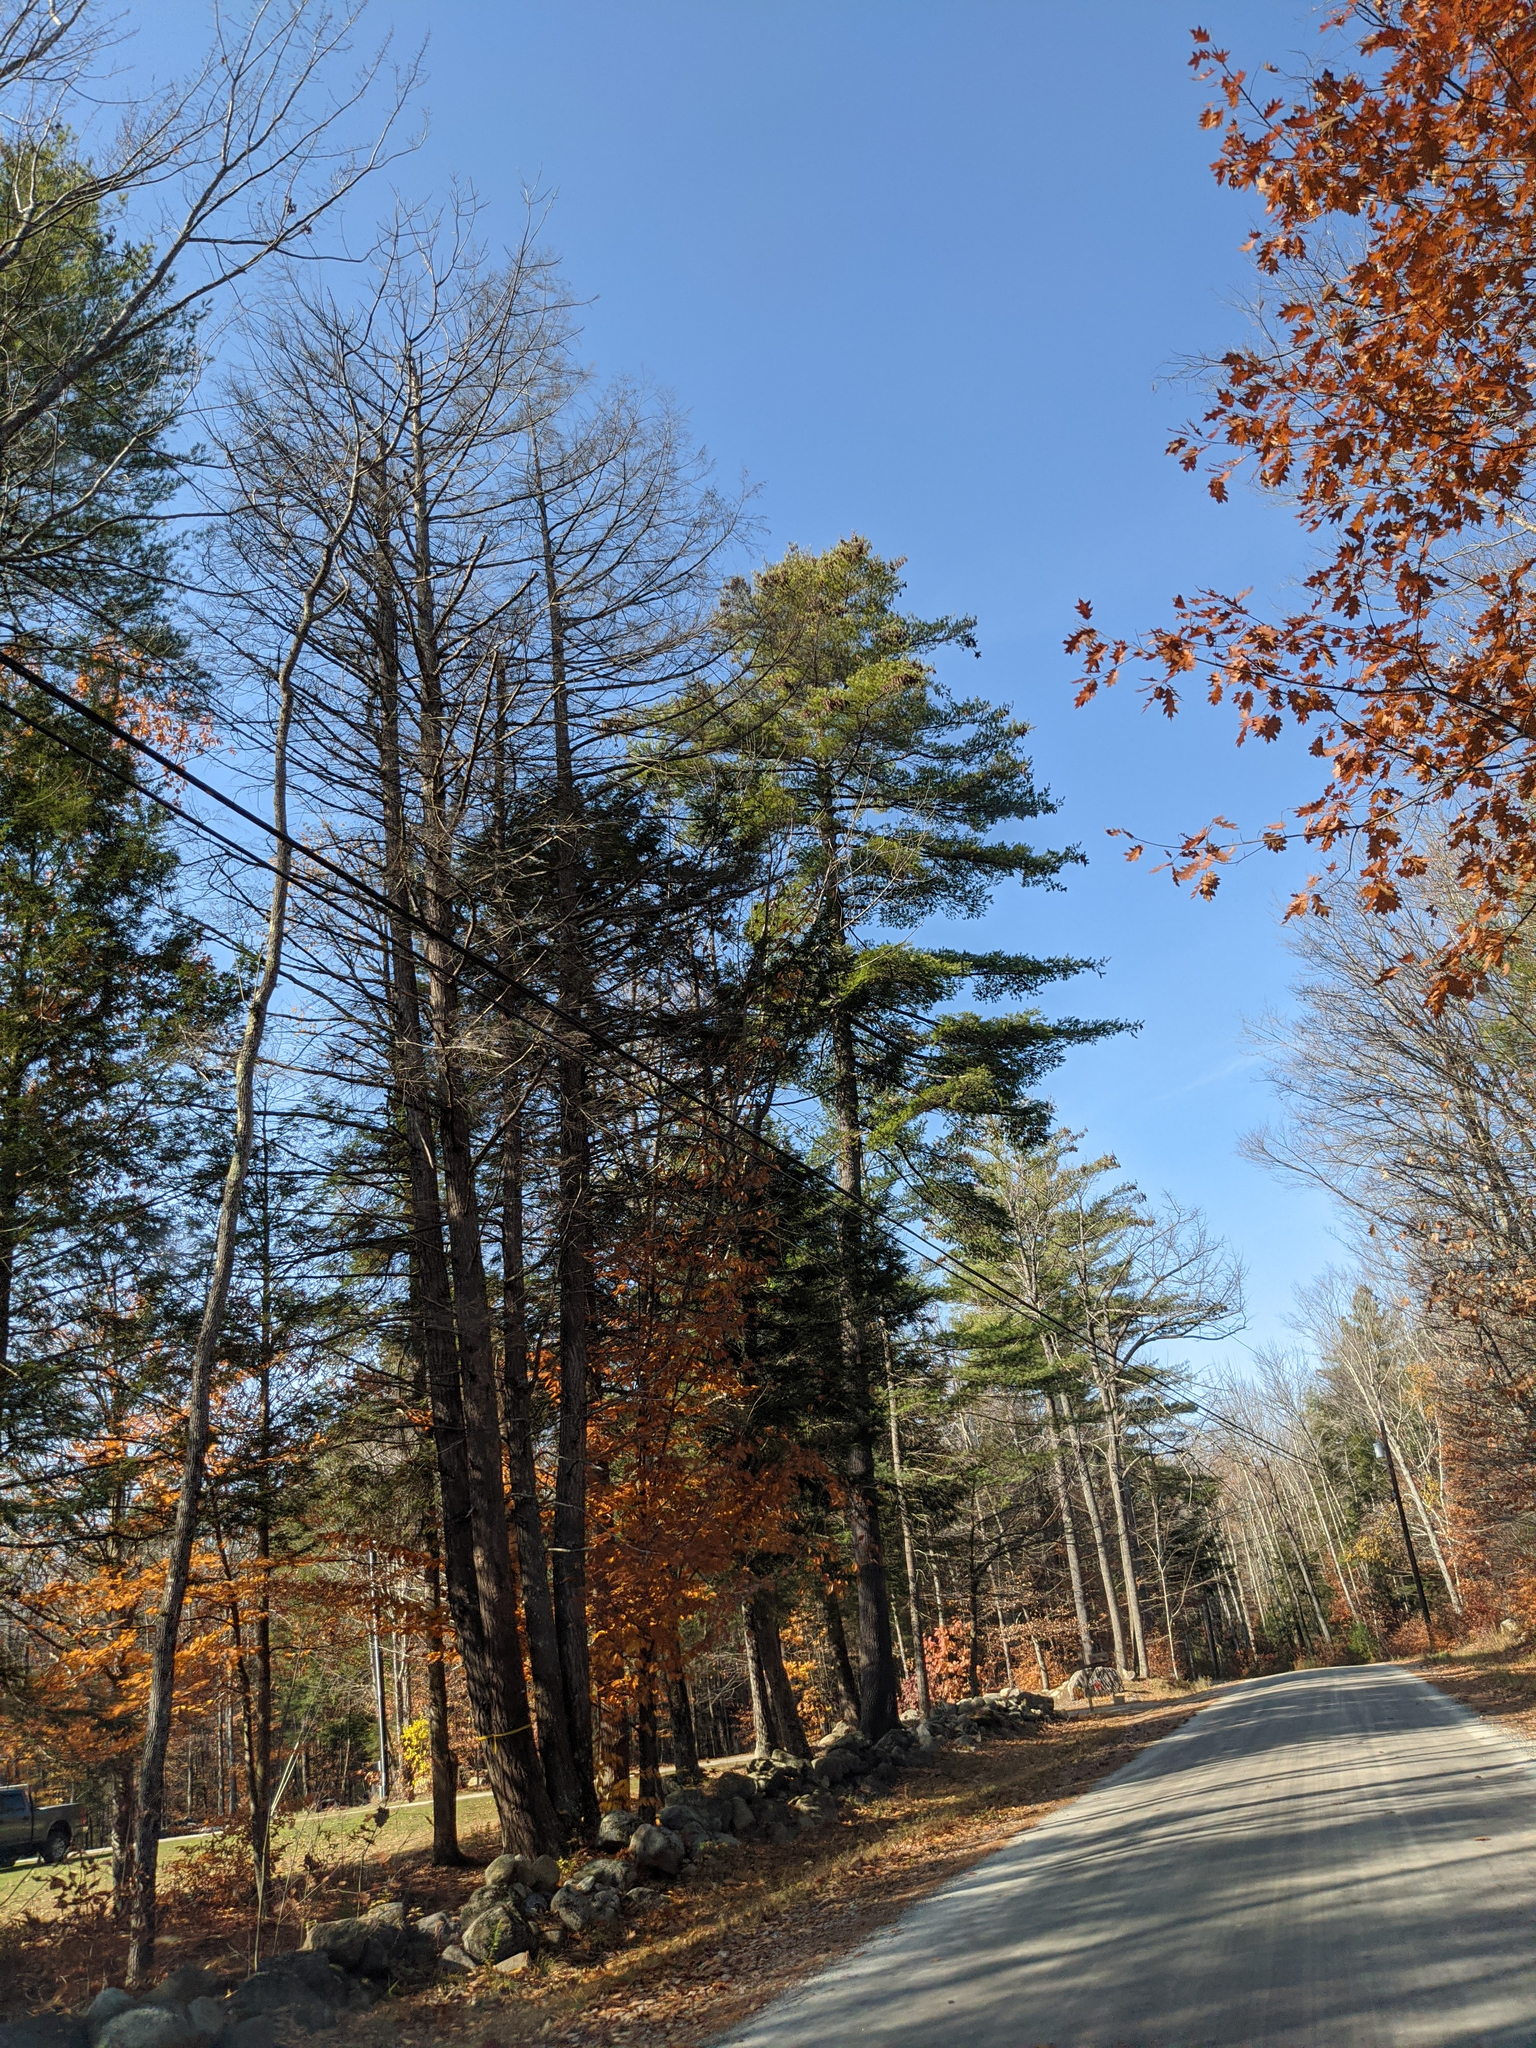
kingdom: Plantae
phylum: Tracheophyta
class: Pinopsida
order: Pinales
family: Pinaceae
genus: Pinus
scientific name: Pinus strobus
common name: Weymouth pine
